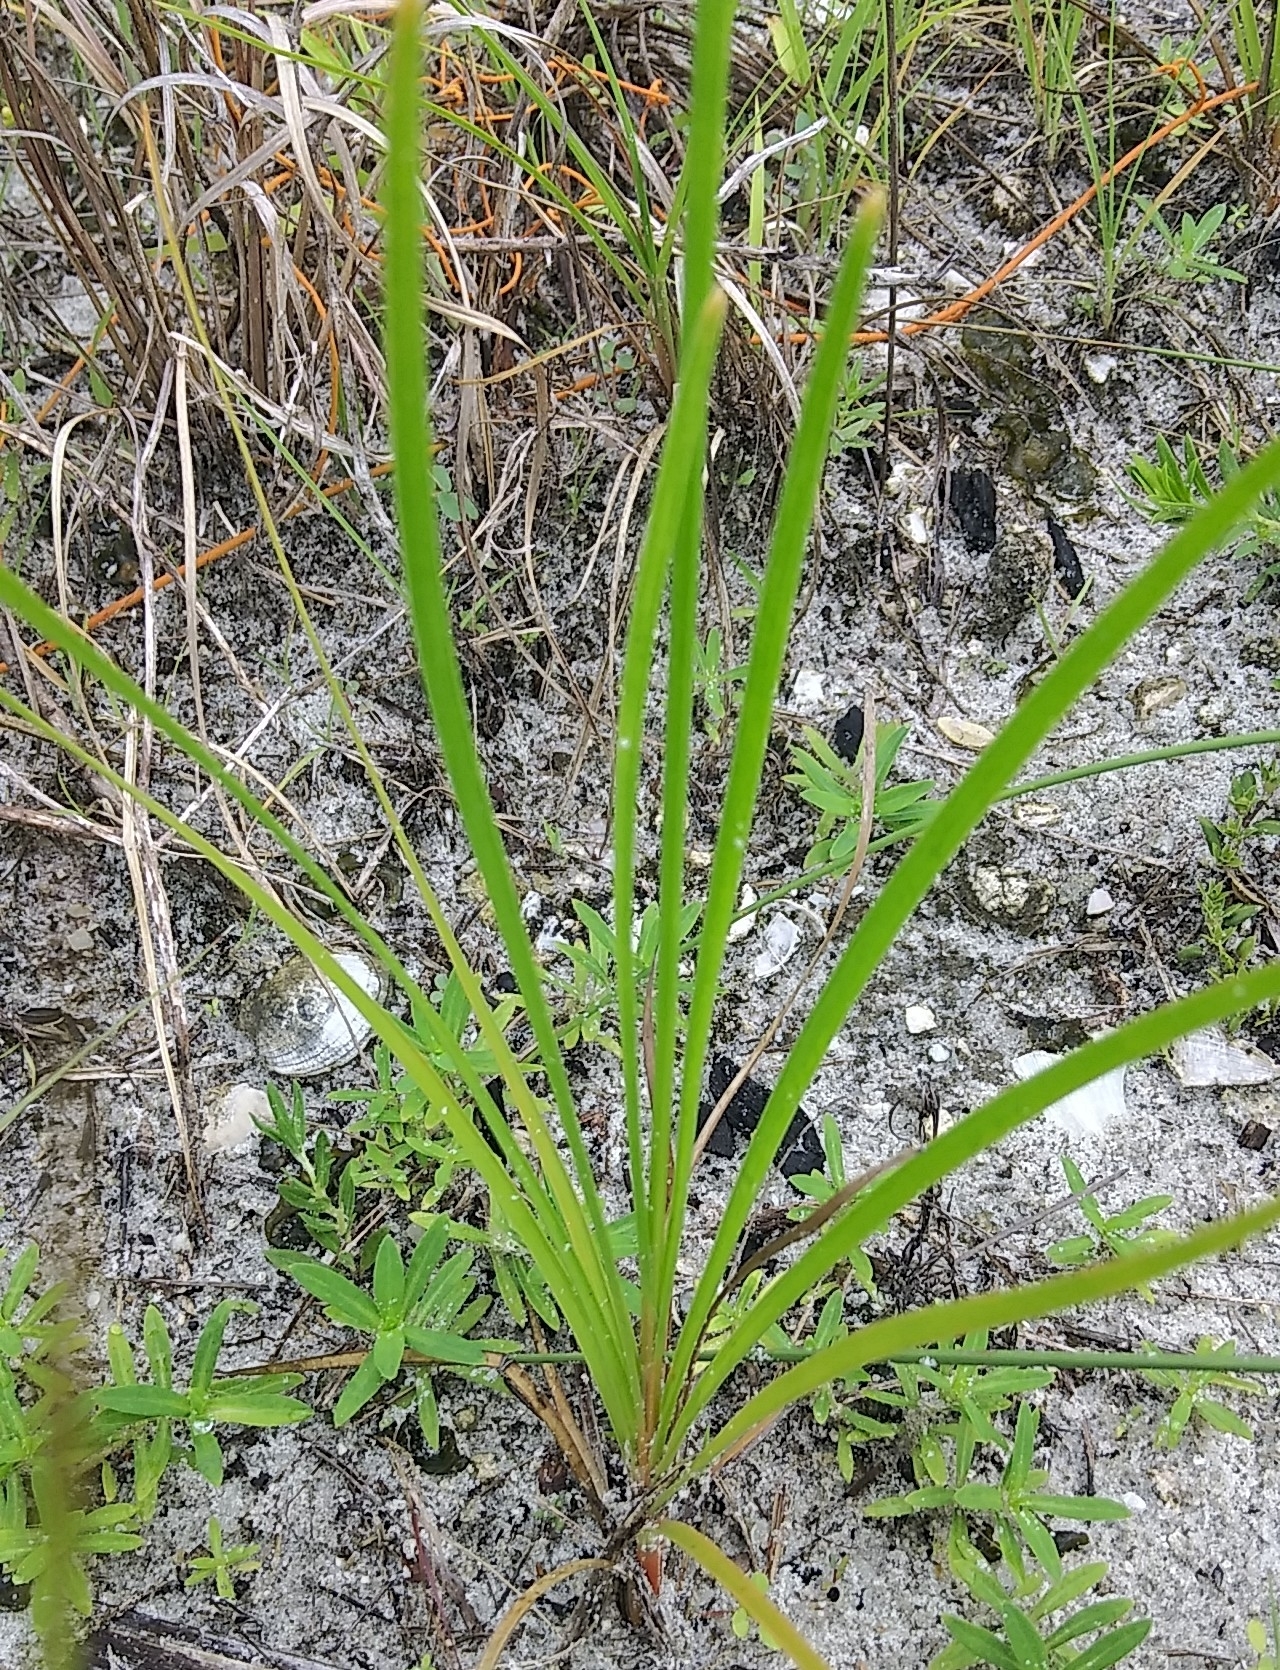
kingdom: Plantae
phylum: Tracheophyta
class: Liliopsida
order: Poales
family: Cyperaceae
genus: Fimbristylis
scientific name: Fimbristylis puberula
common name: Hairy fimbristylis
